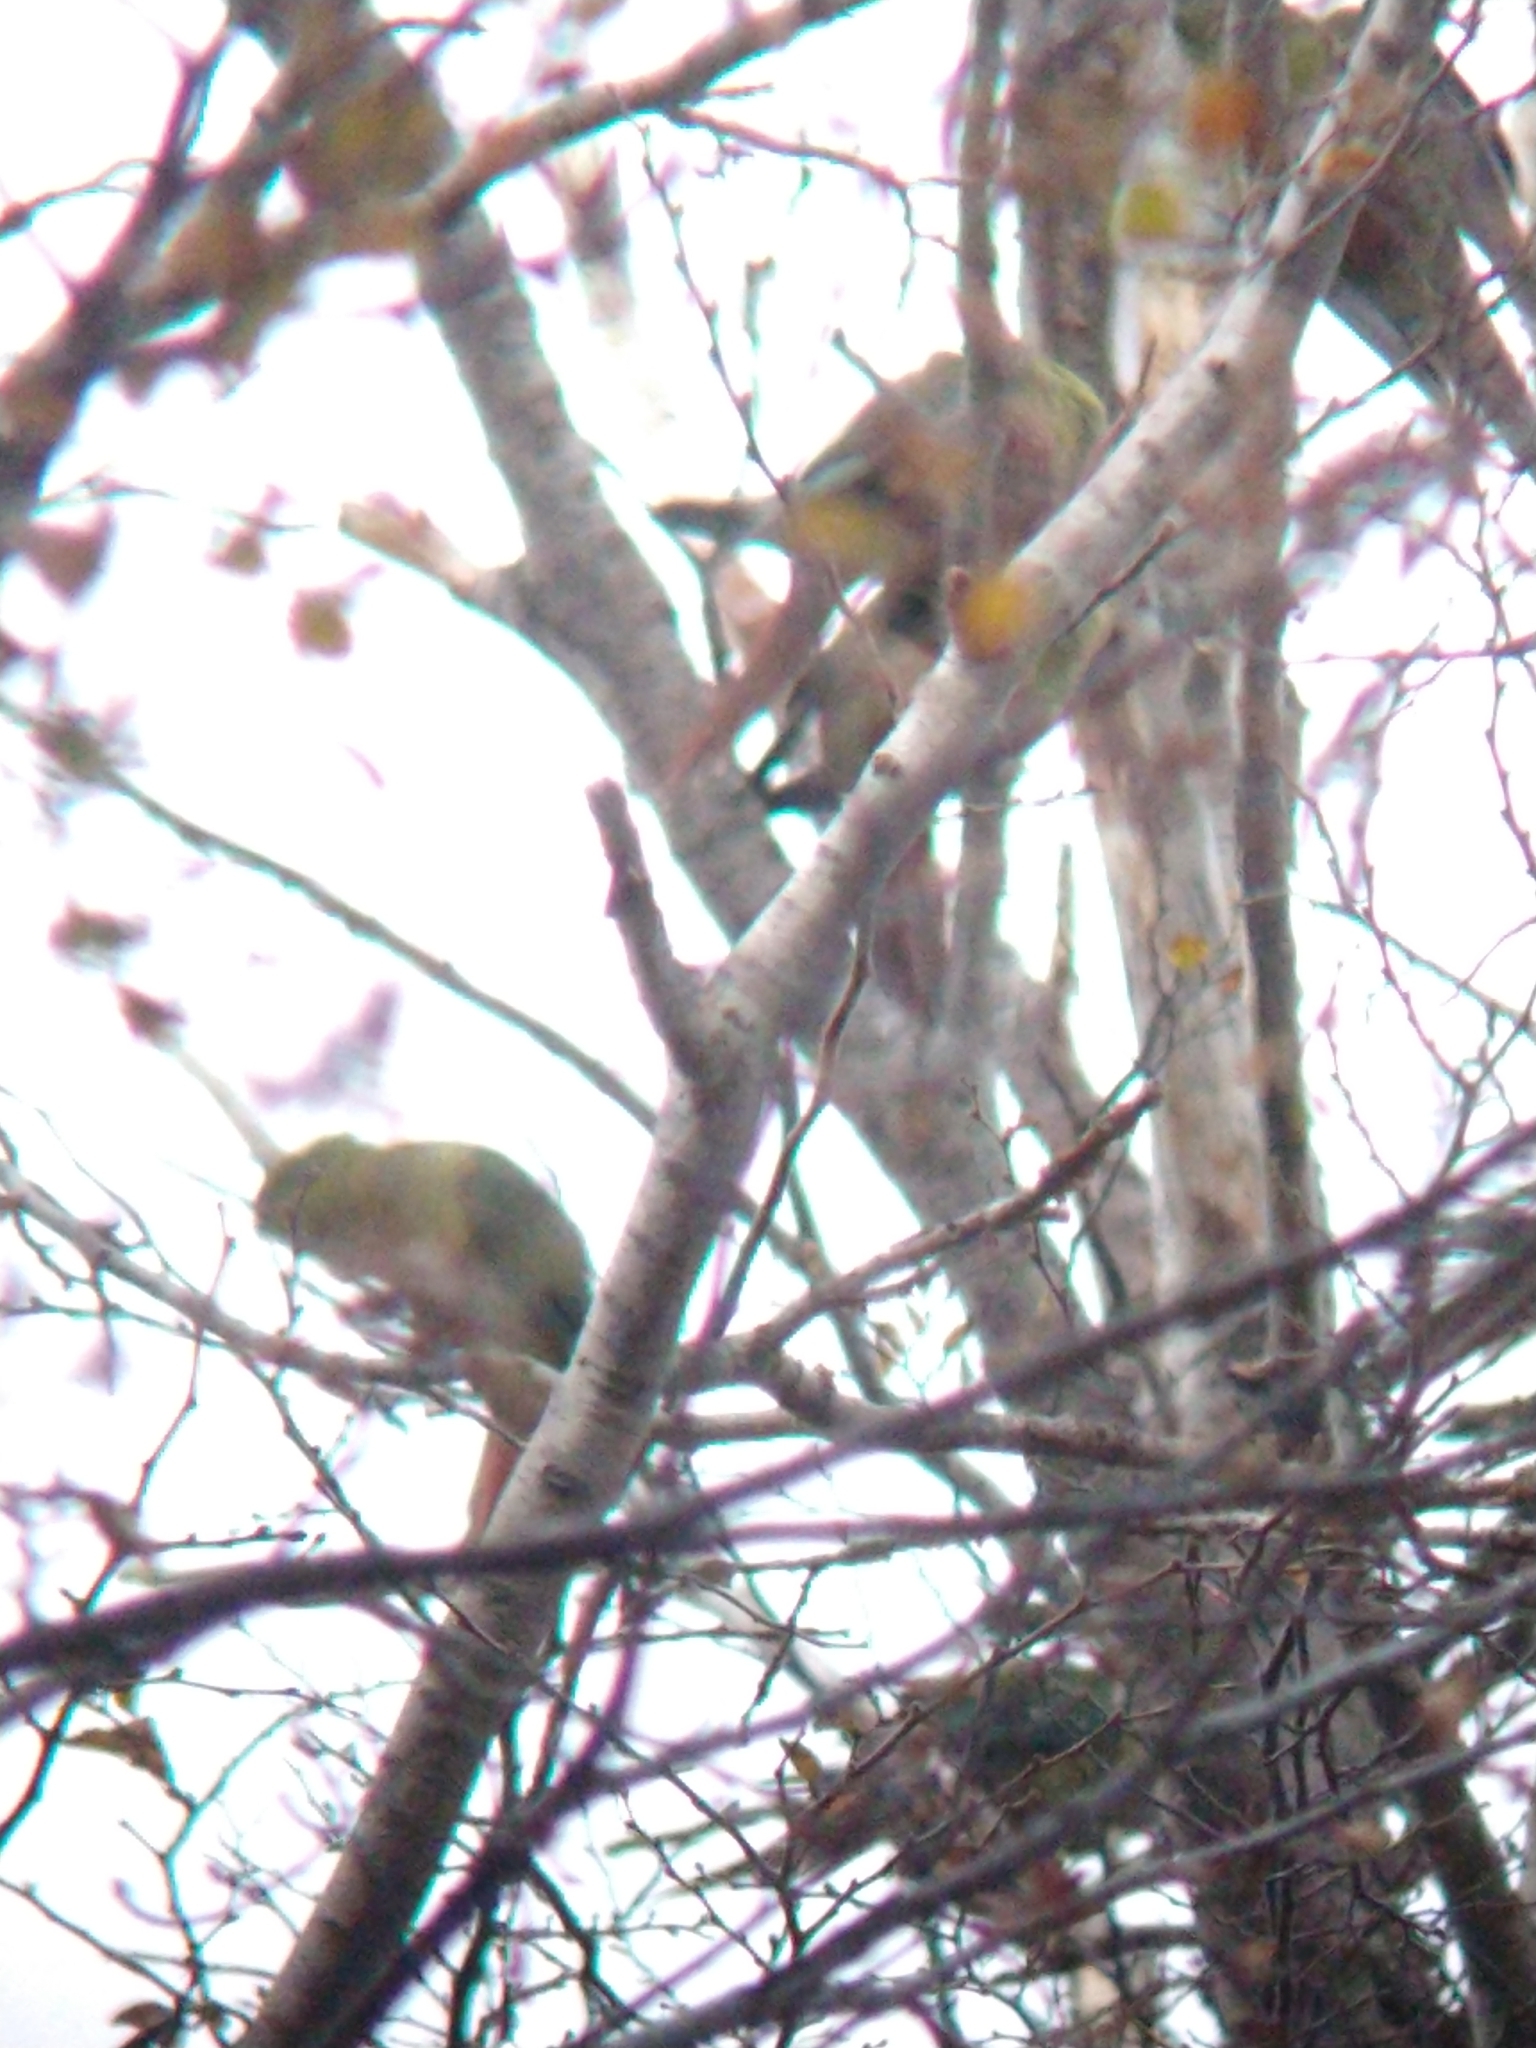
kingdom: Animalia
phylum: Chordata
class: Aves
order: Psittaciformes
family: Psittacidae
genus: Enicognathus
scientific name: Enicognathus ferrugineus
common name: Austral parakeet
